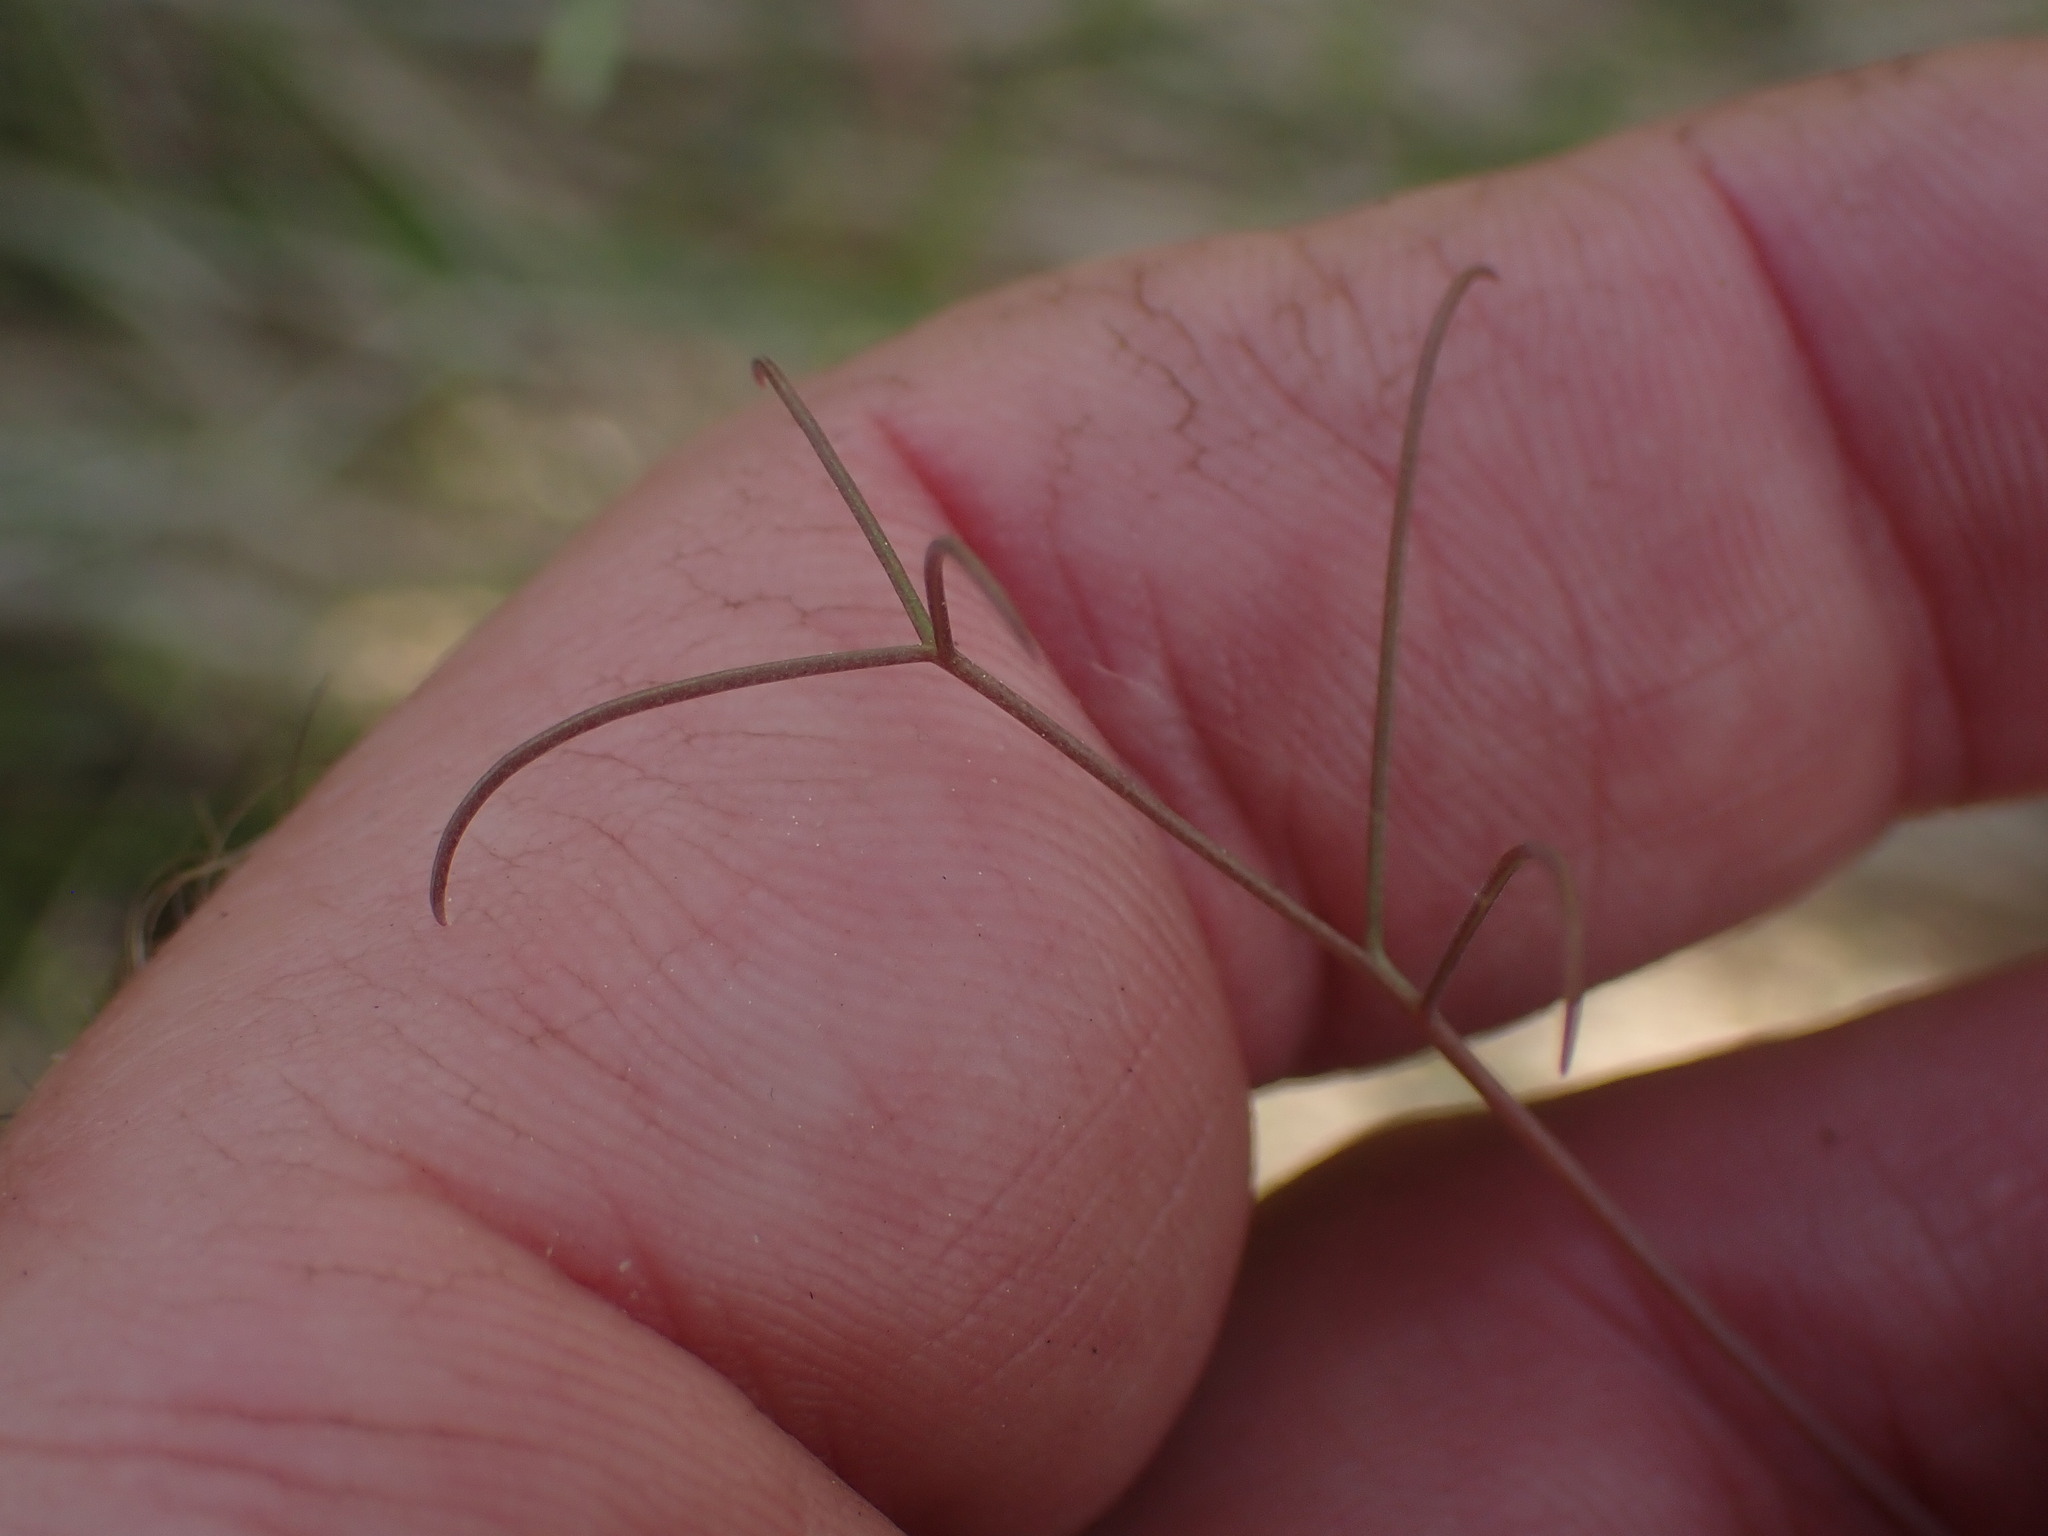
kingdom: Plantae
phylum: Tracheophyta
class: Magnoliopsida
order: Fabales
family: Fabaceae
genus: Lathyrus
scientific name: Lathyrus ochroleucus
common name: Pale vetchling
